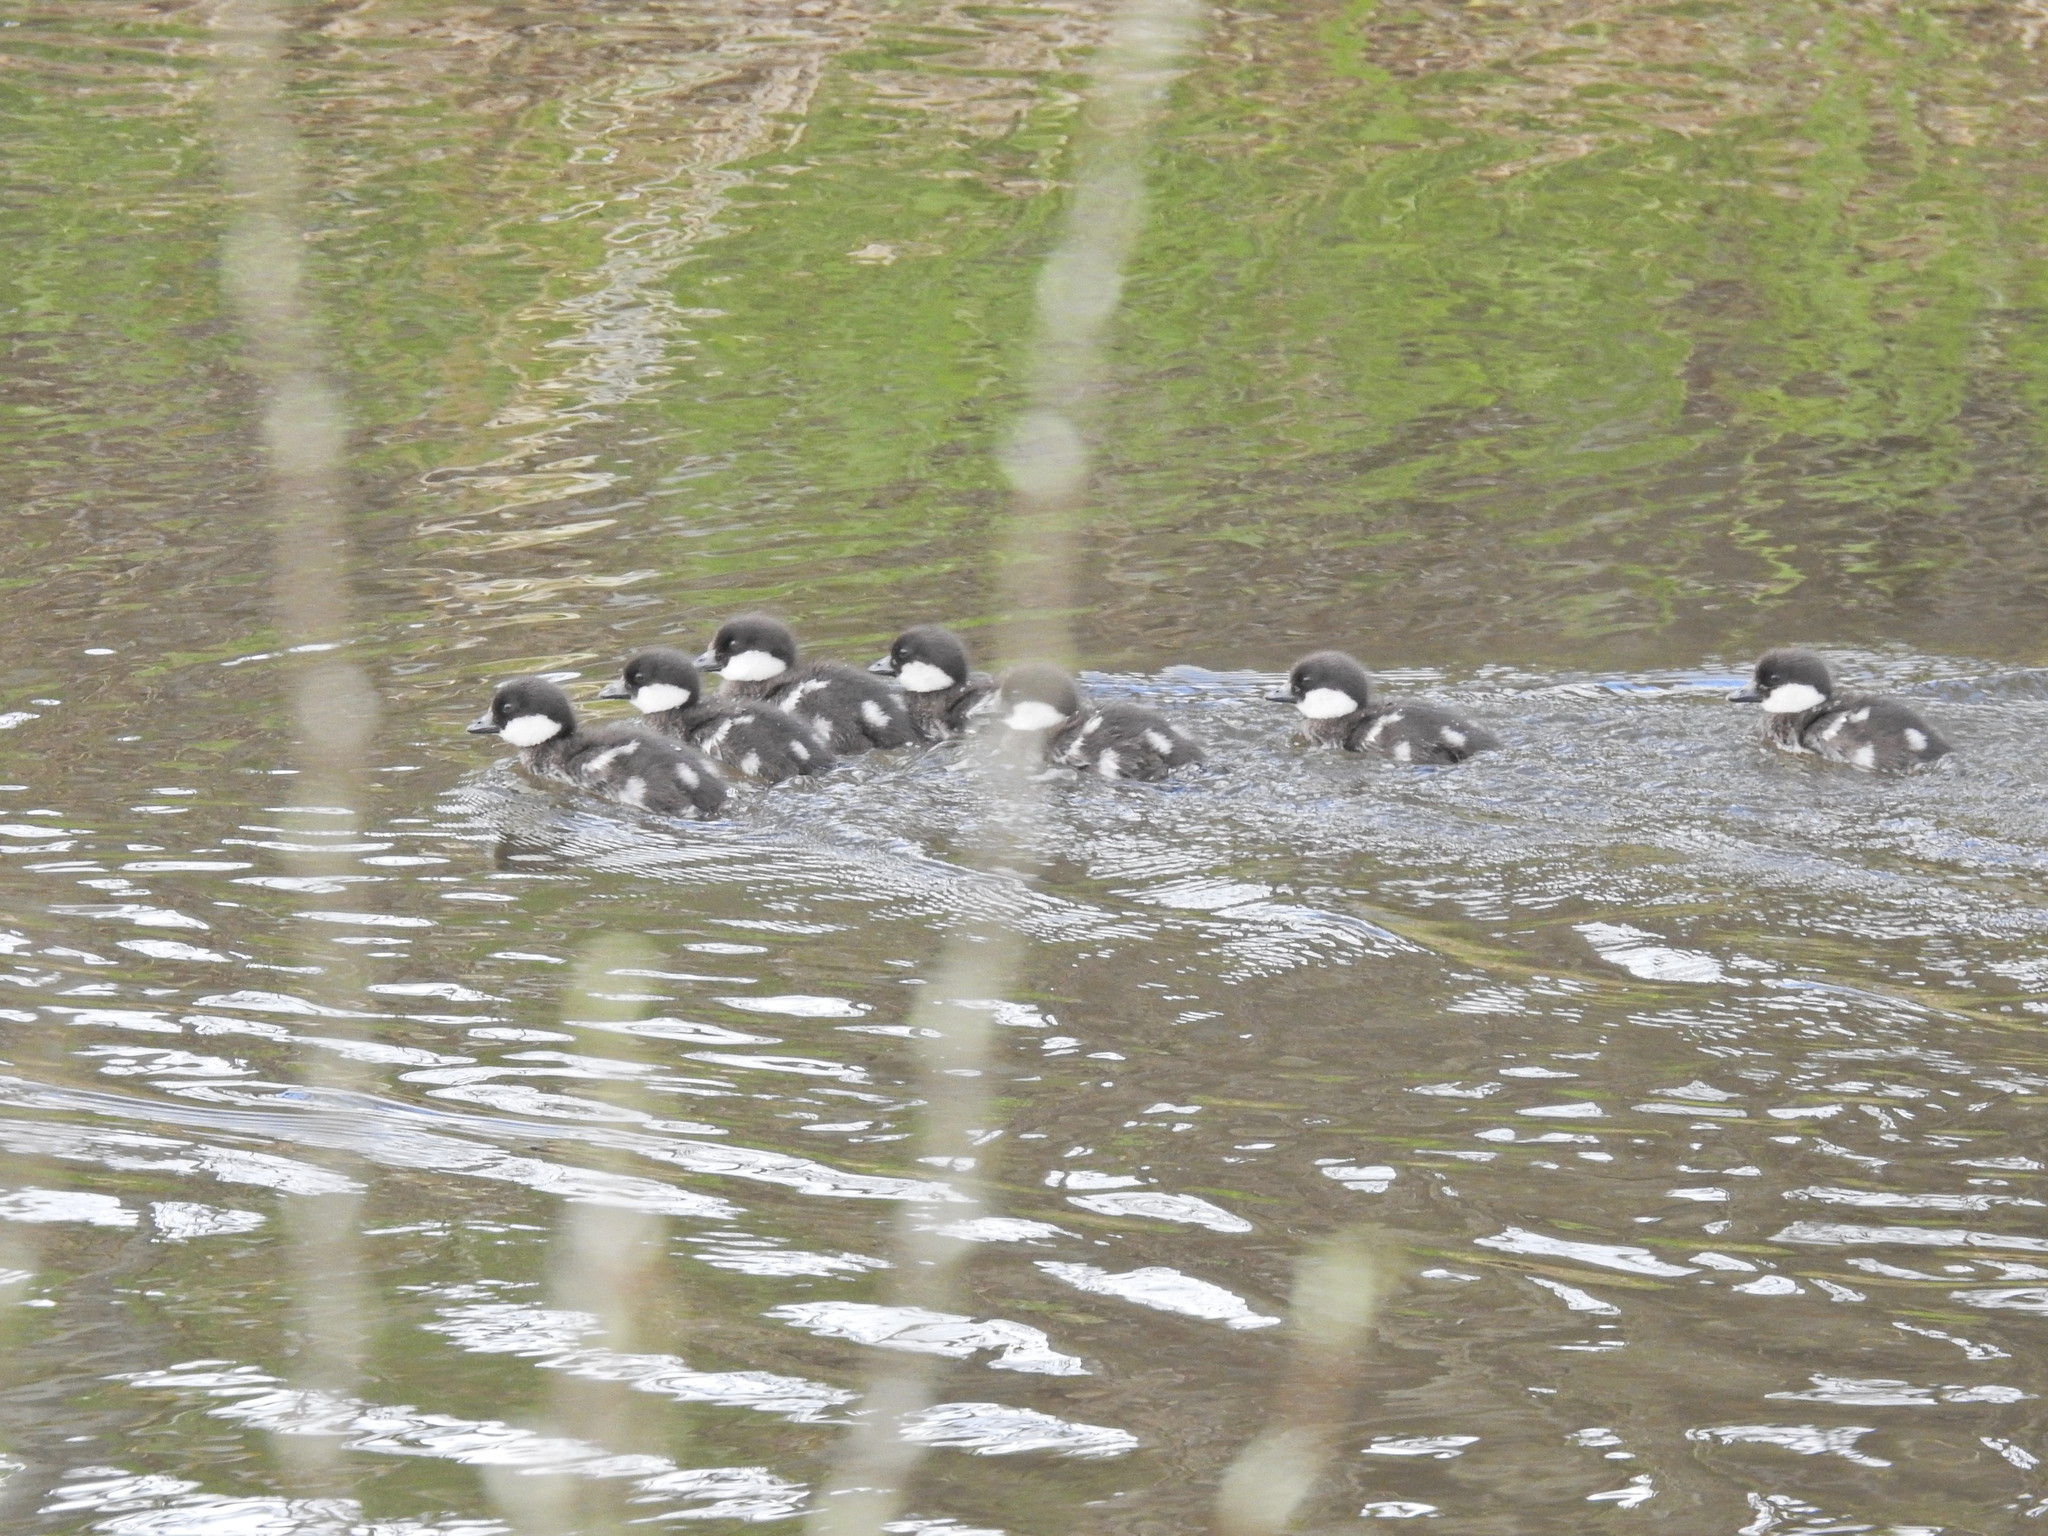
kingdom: Animalia
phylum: Chordata
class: Aves
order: Anseriformes
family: Anatidae
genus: Bucephala
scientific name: Bucephala clangula
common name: Common goldeneye
